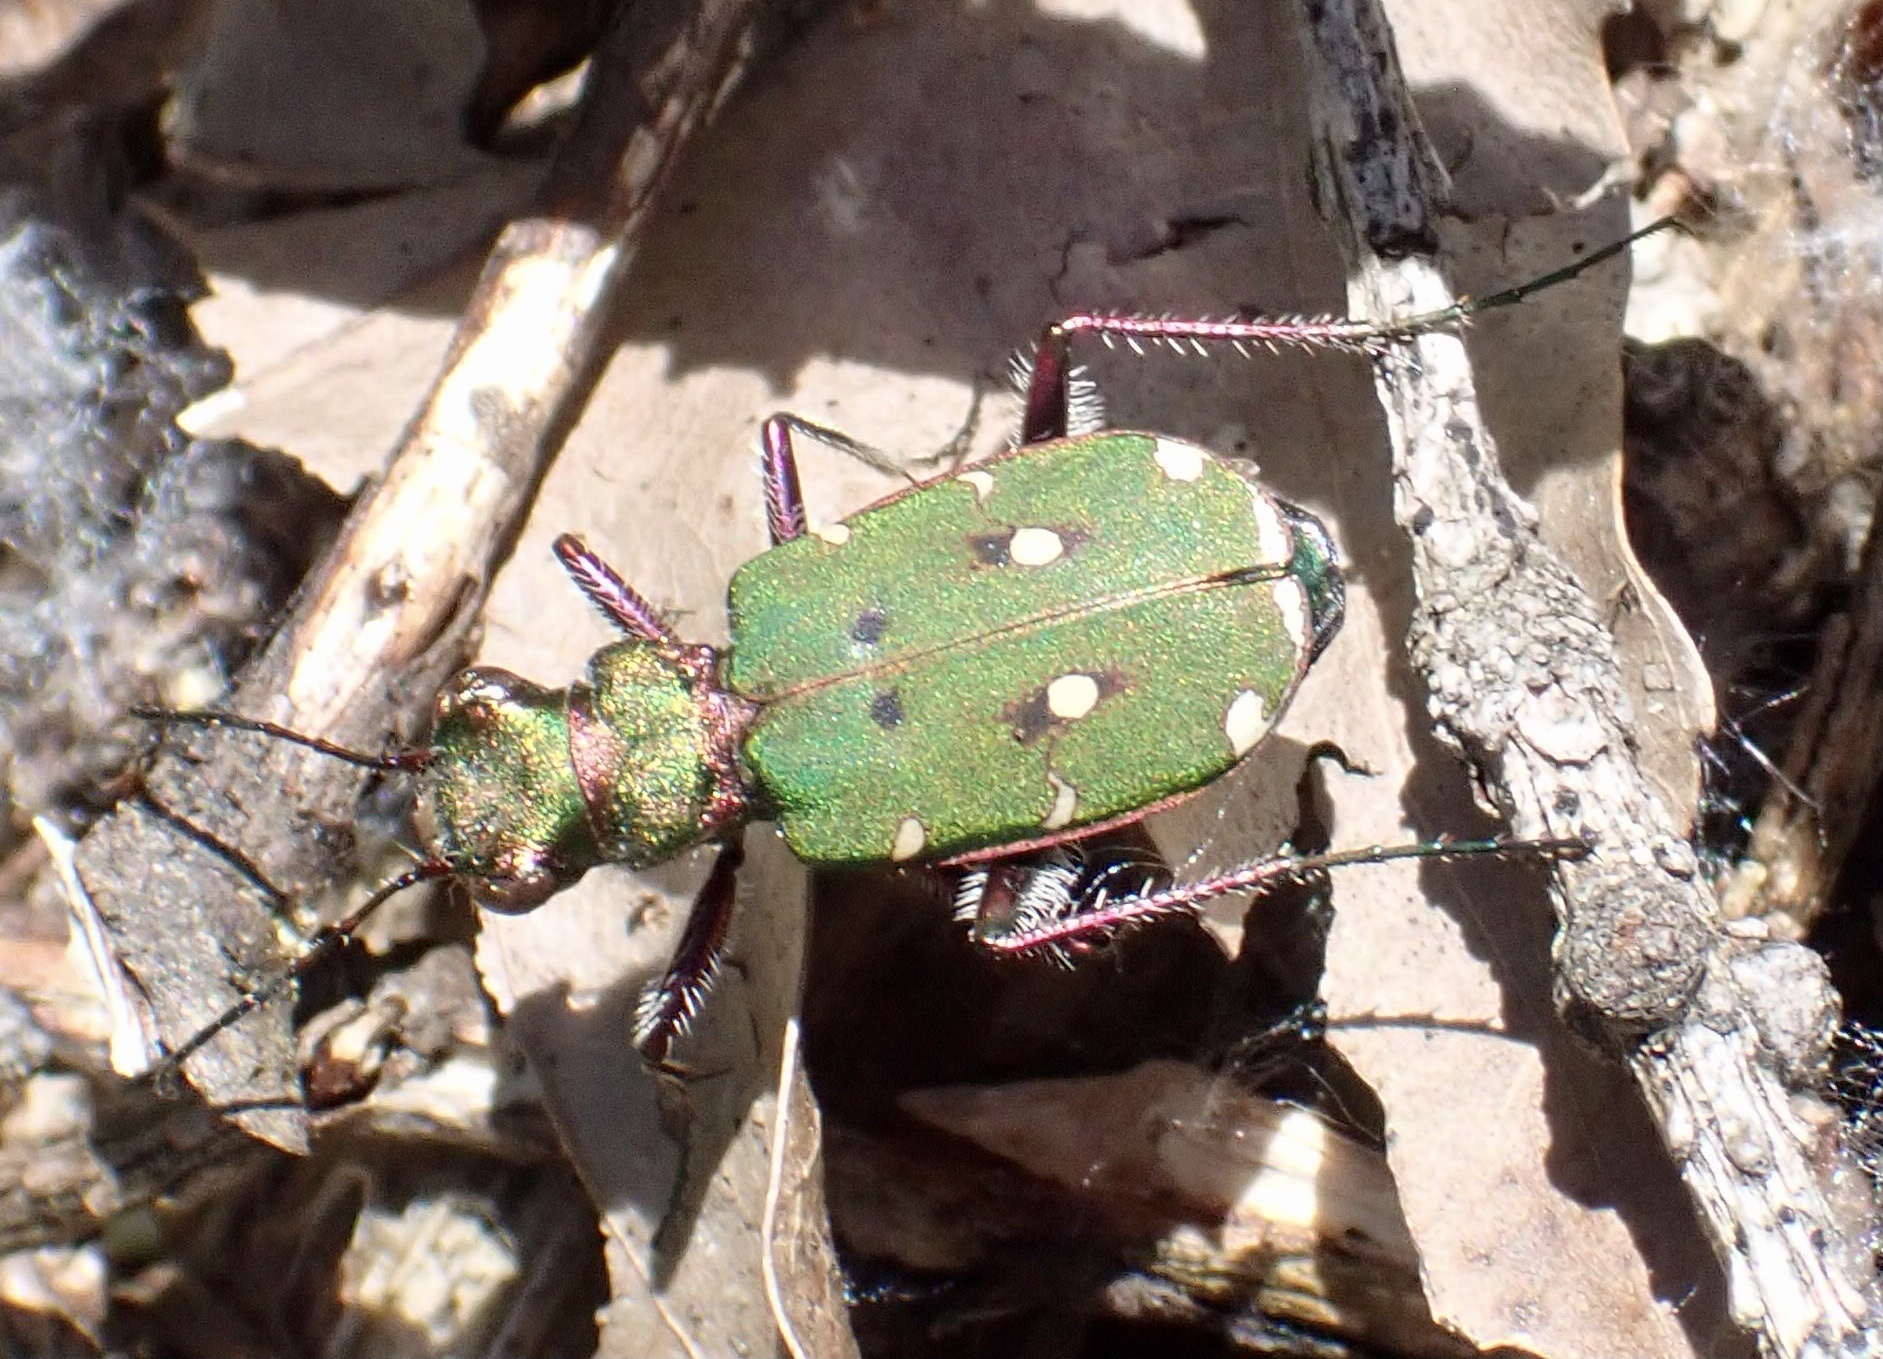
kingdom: Animalia
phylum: Arthropoda
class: Insecta
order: Coleoptera
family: Carabidae
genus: Cicindela
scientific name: Cicindela campestris
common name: Common tiger beetle
